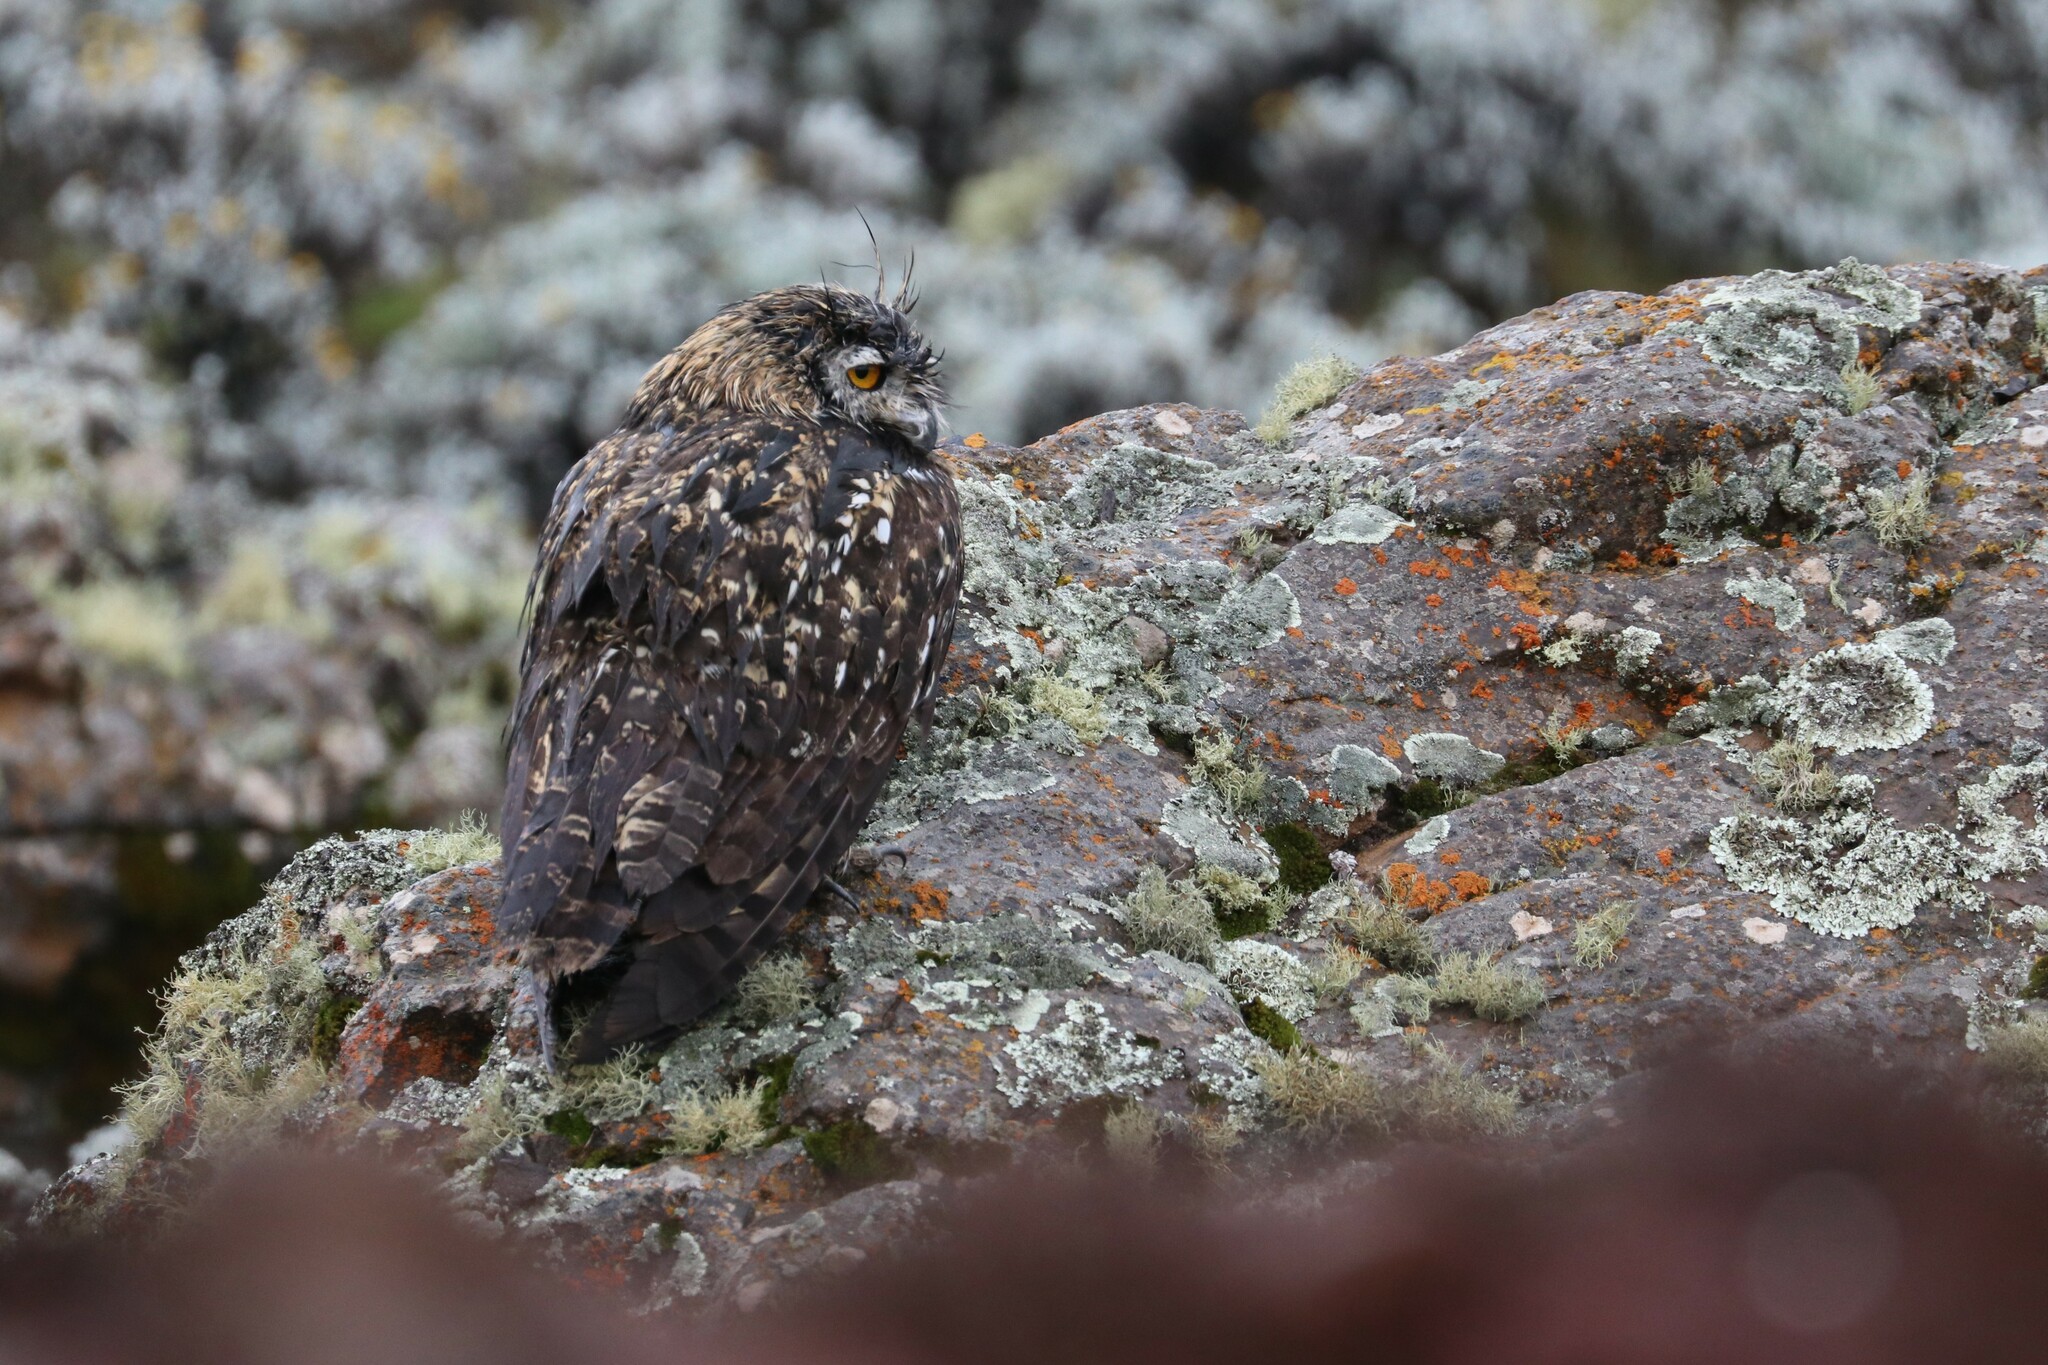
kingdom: Animalia
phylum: Chordata
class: Aves
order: Strigiformes
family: Strigidae
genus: Bubo
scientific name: Bubo capensis
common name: Cape eagle-owl
